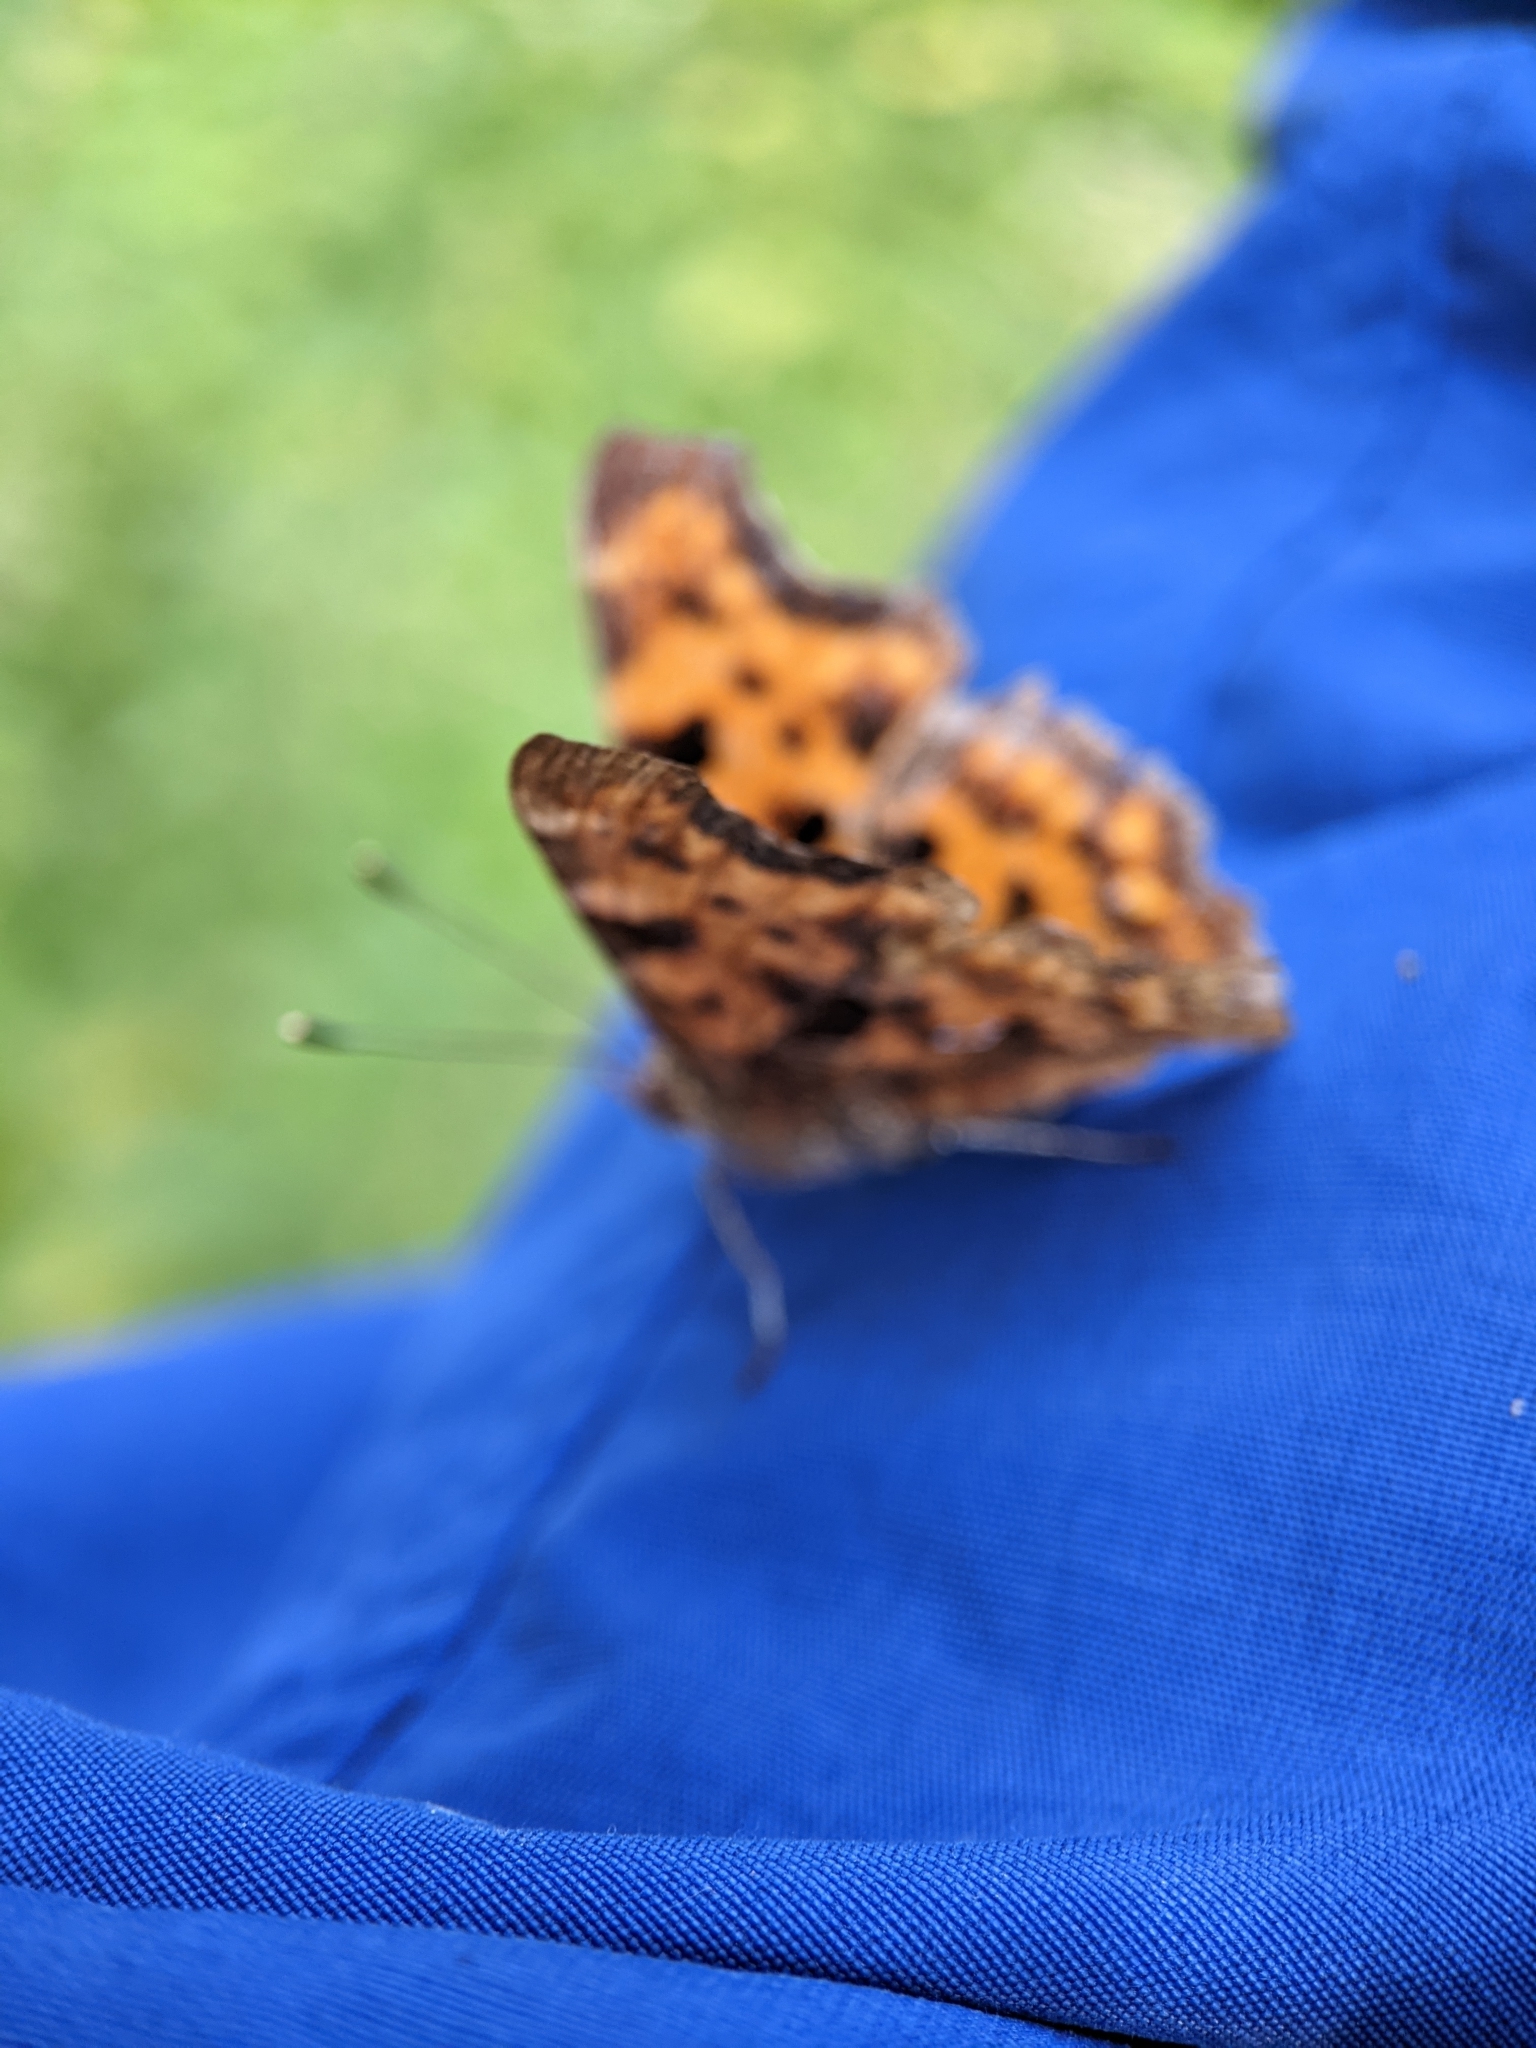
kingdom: Animalia
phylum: Arthropoda
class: Insecta
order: Lepidoptera
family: Nymphalidae
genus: Polygonia
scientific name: Polygonia c-album
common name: Comma
